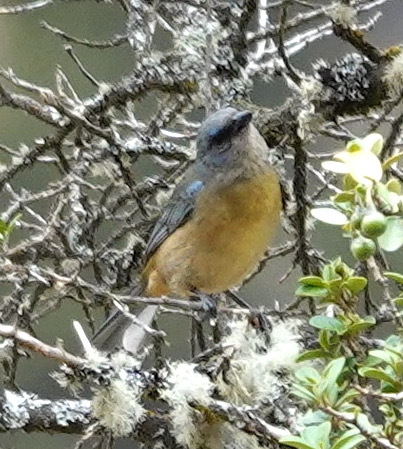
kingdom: Animalia
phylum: Chordata
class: Aves
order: Passeriformes
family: Thraupidae
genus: Rauenia
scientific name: Rauenia bonariensis
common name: Blue-and-yellow tanager
